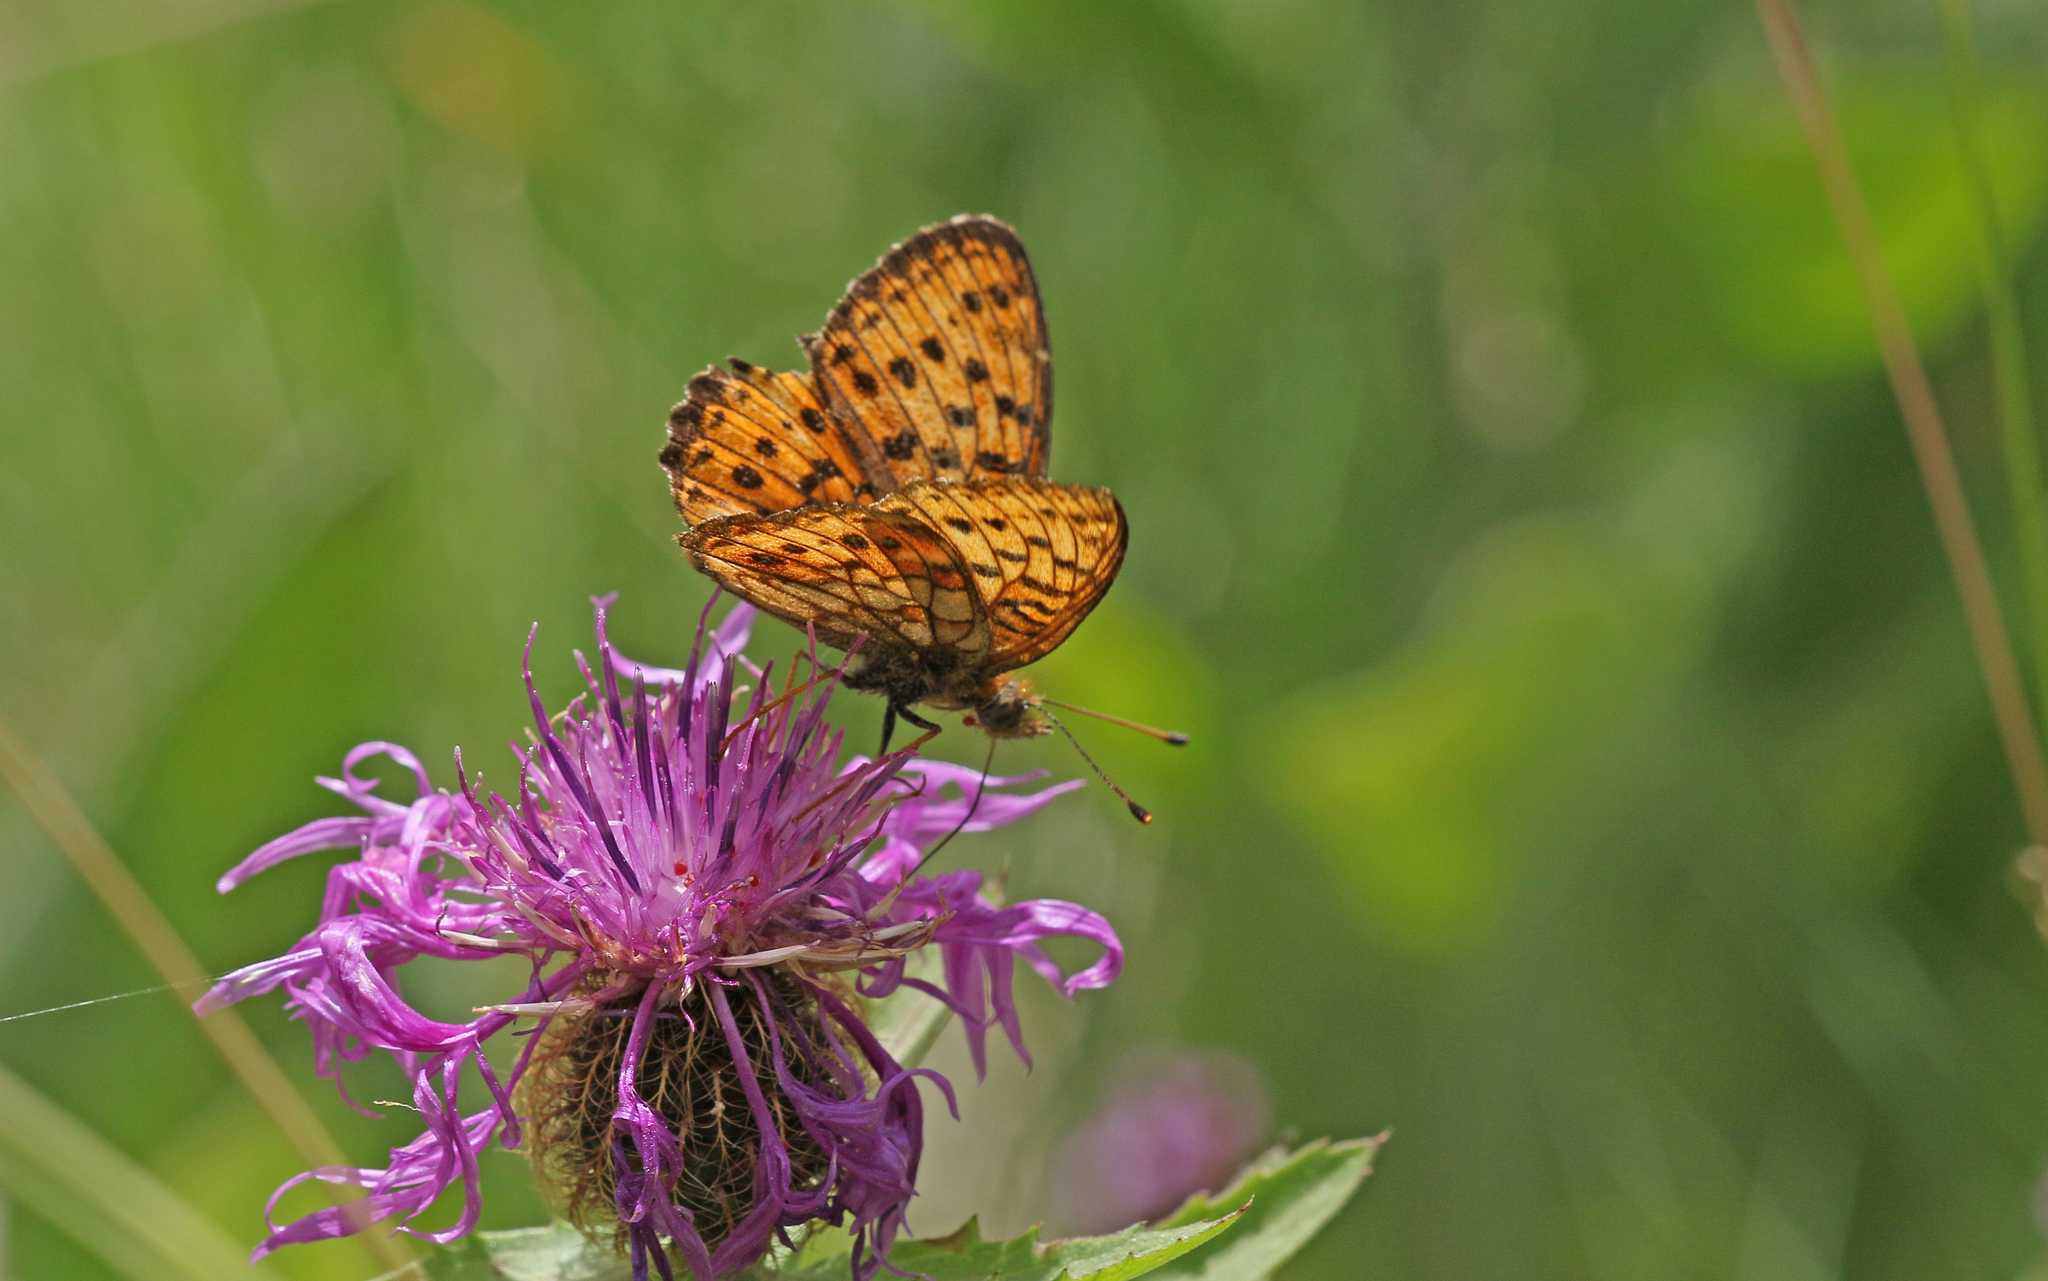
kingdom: Animalia
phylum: Arthropoda
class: Insecta
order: Lepidoptera
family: Nymphalidae
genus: Brenthis
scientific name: Brenthis ino
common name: Lesser marbled fritillary
